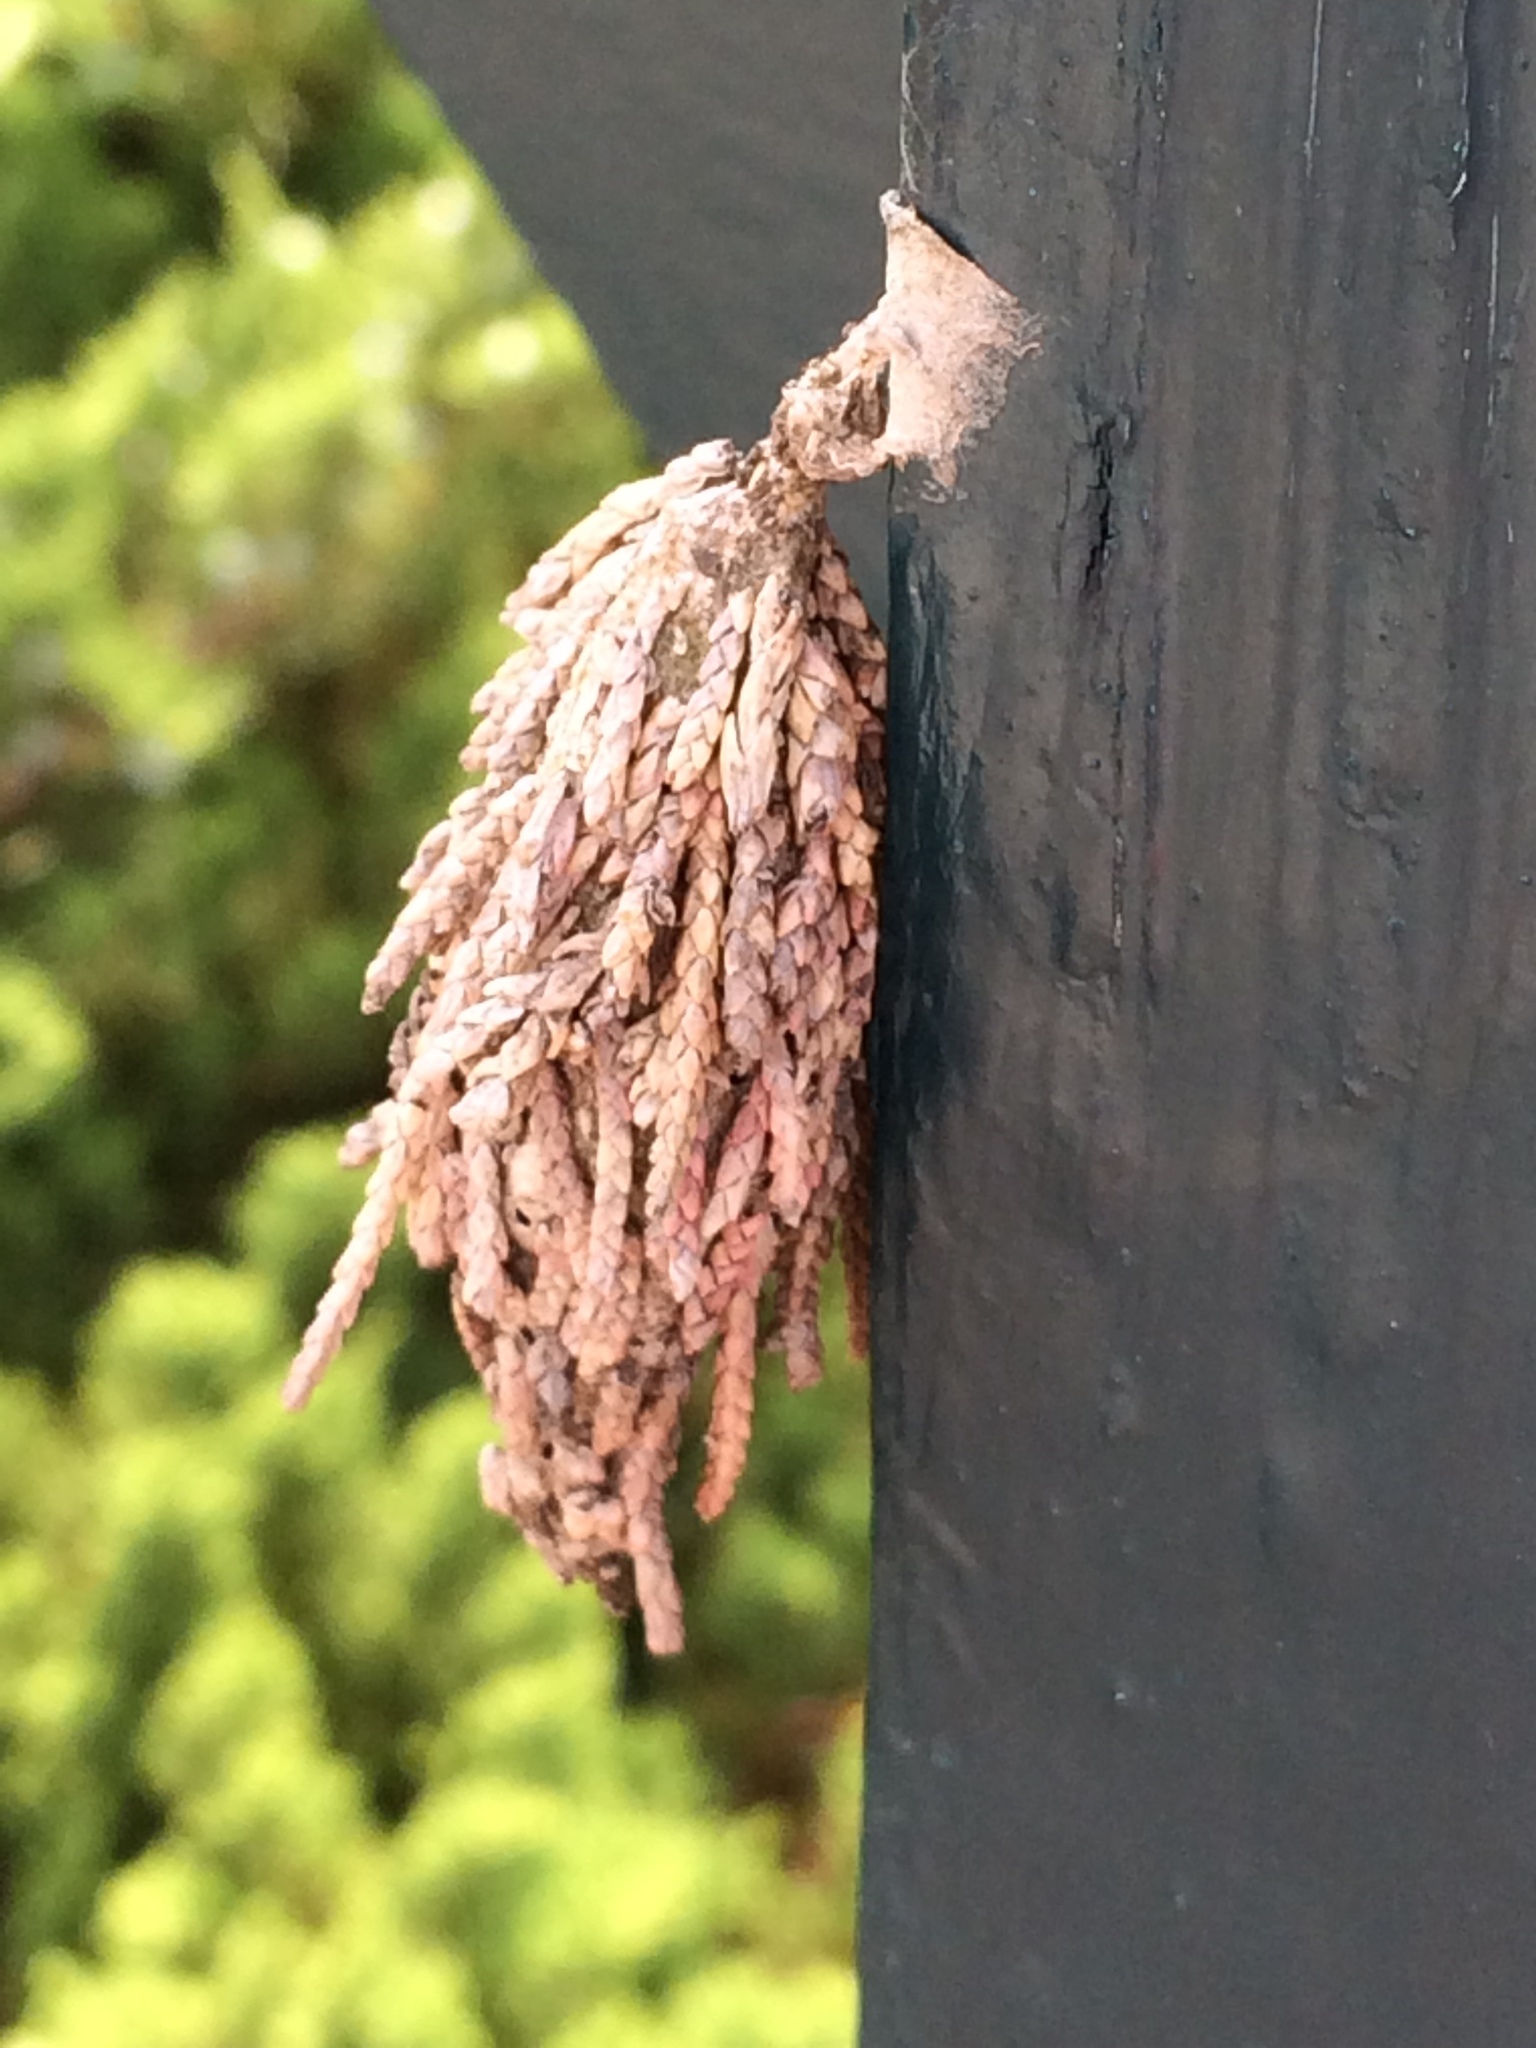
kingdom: Animalia
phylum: Arthropoda
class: Insecta
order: Lepidoptera
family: Psychidae
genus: Thyridopteryx
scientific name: Thyridopteryx ephemeraeformis
